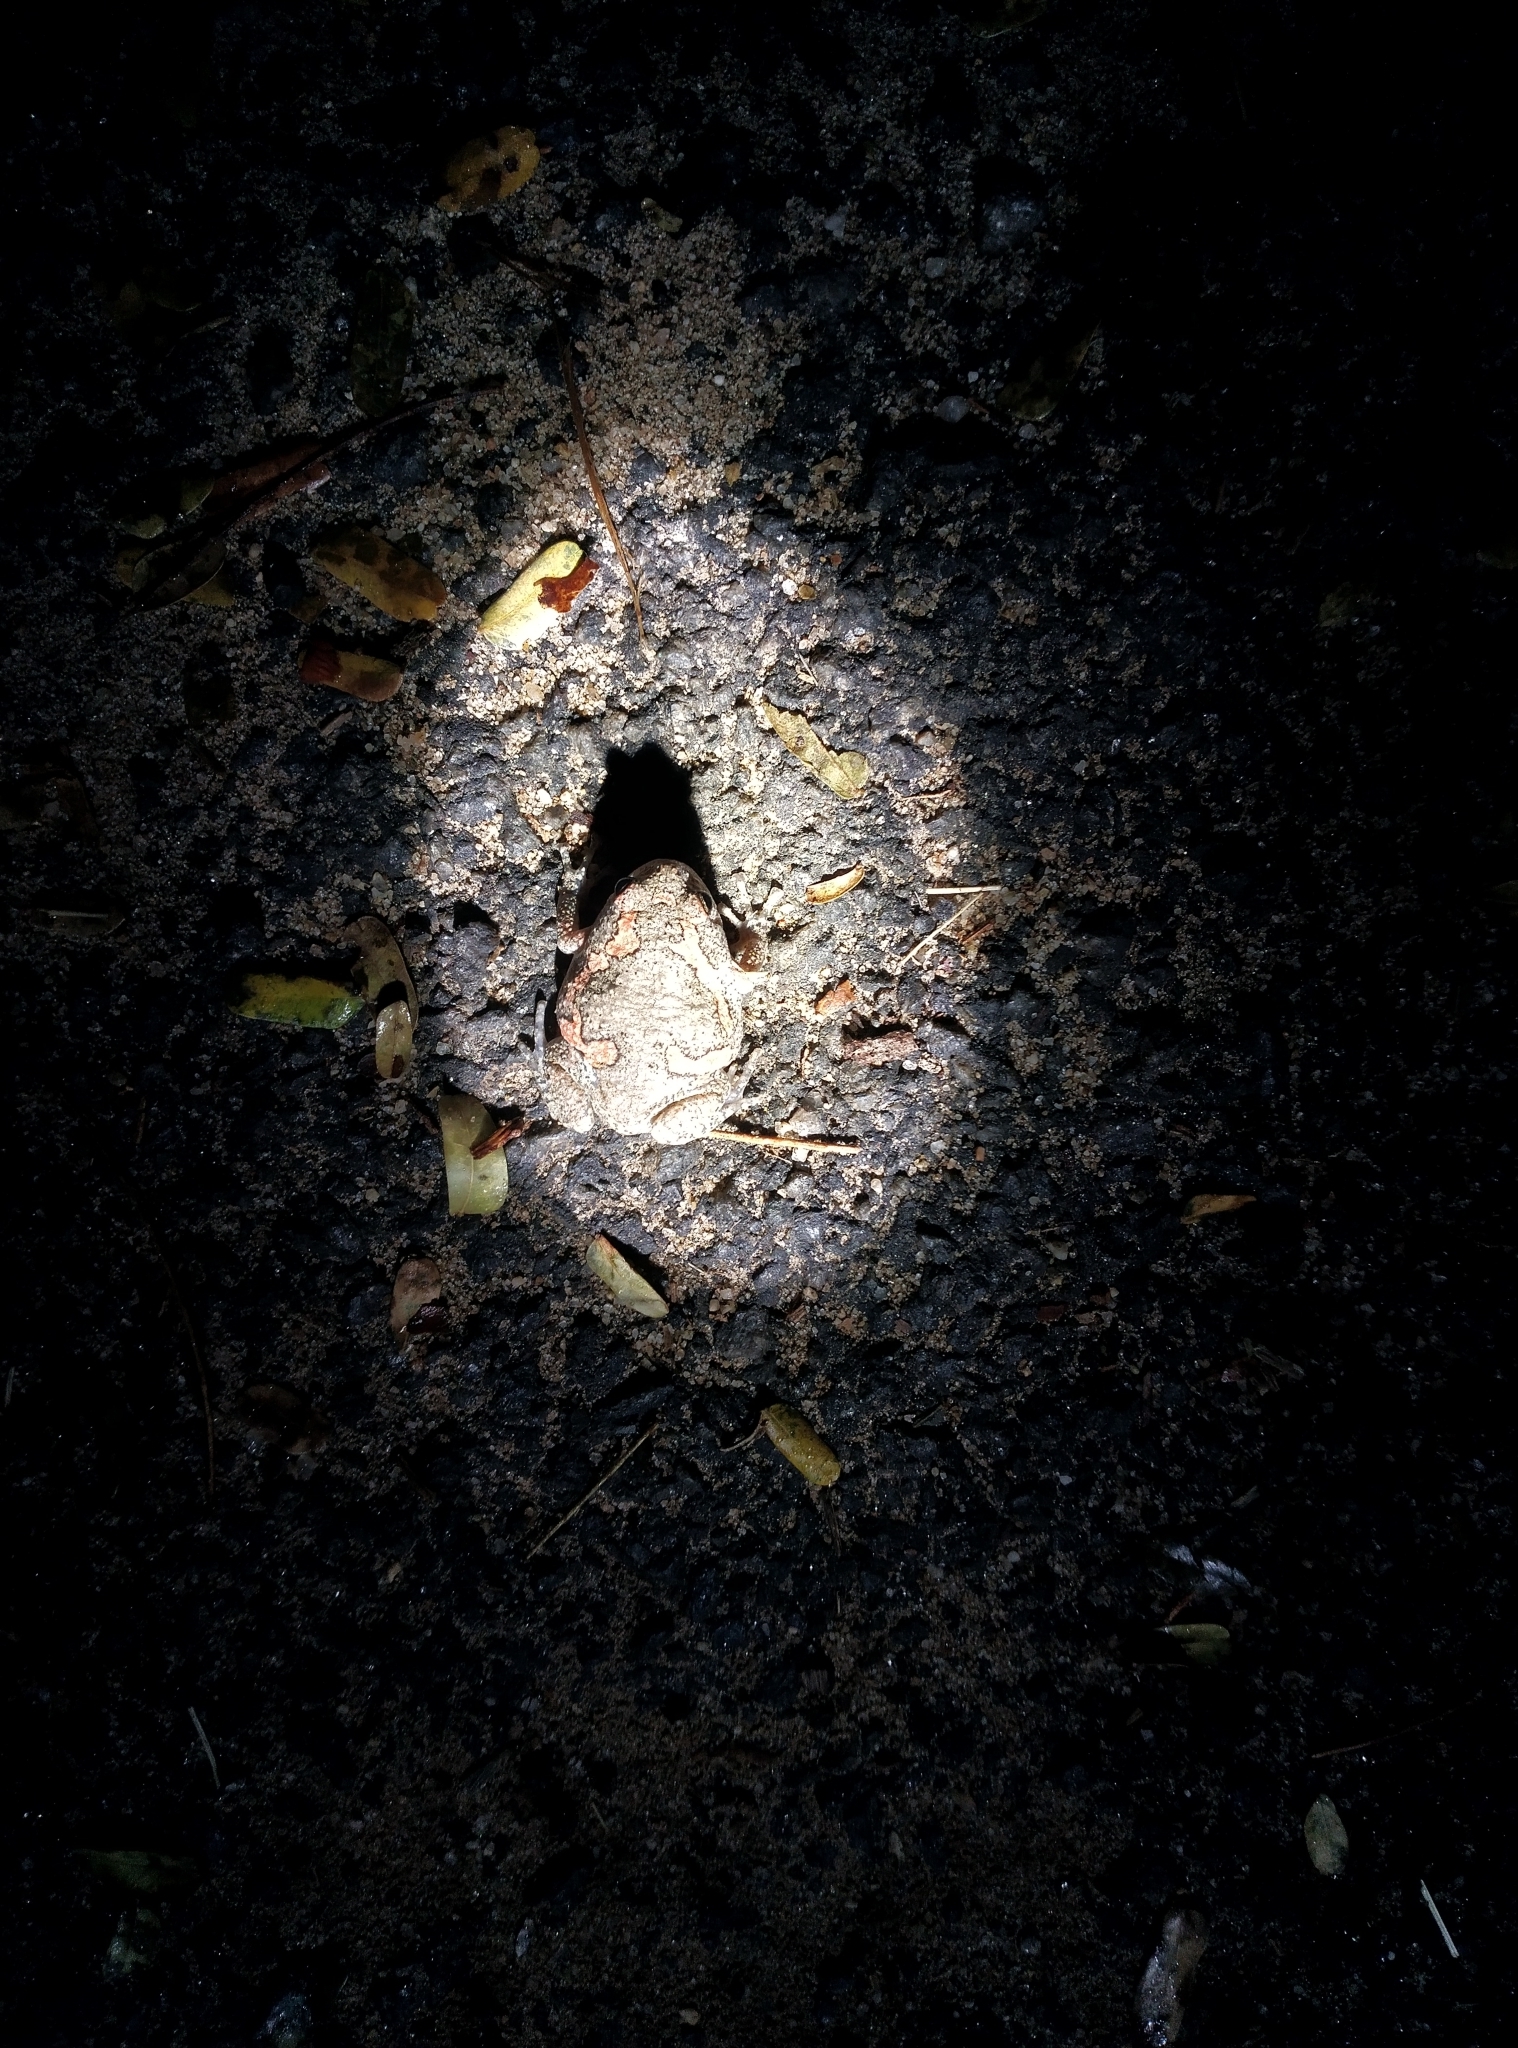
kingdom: Animalia
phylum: Chordata
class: Amphibia
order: Anura
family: Microhylidae
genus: Uperodon
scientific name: Uperodon taprobanicus
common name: Ceylon kaloula
